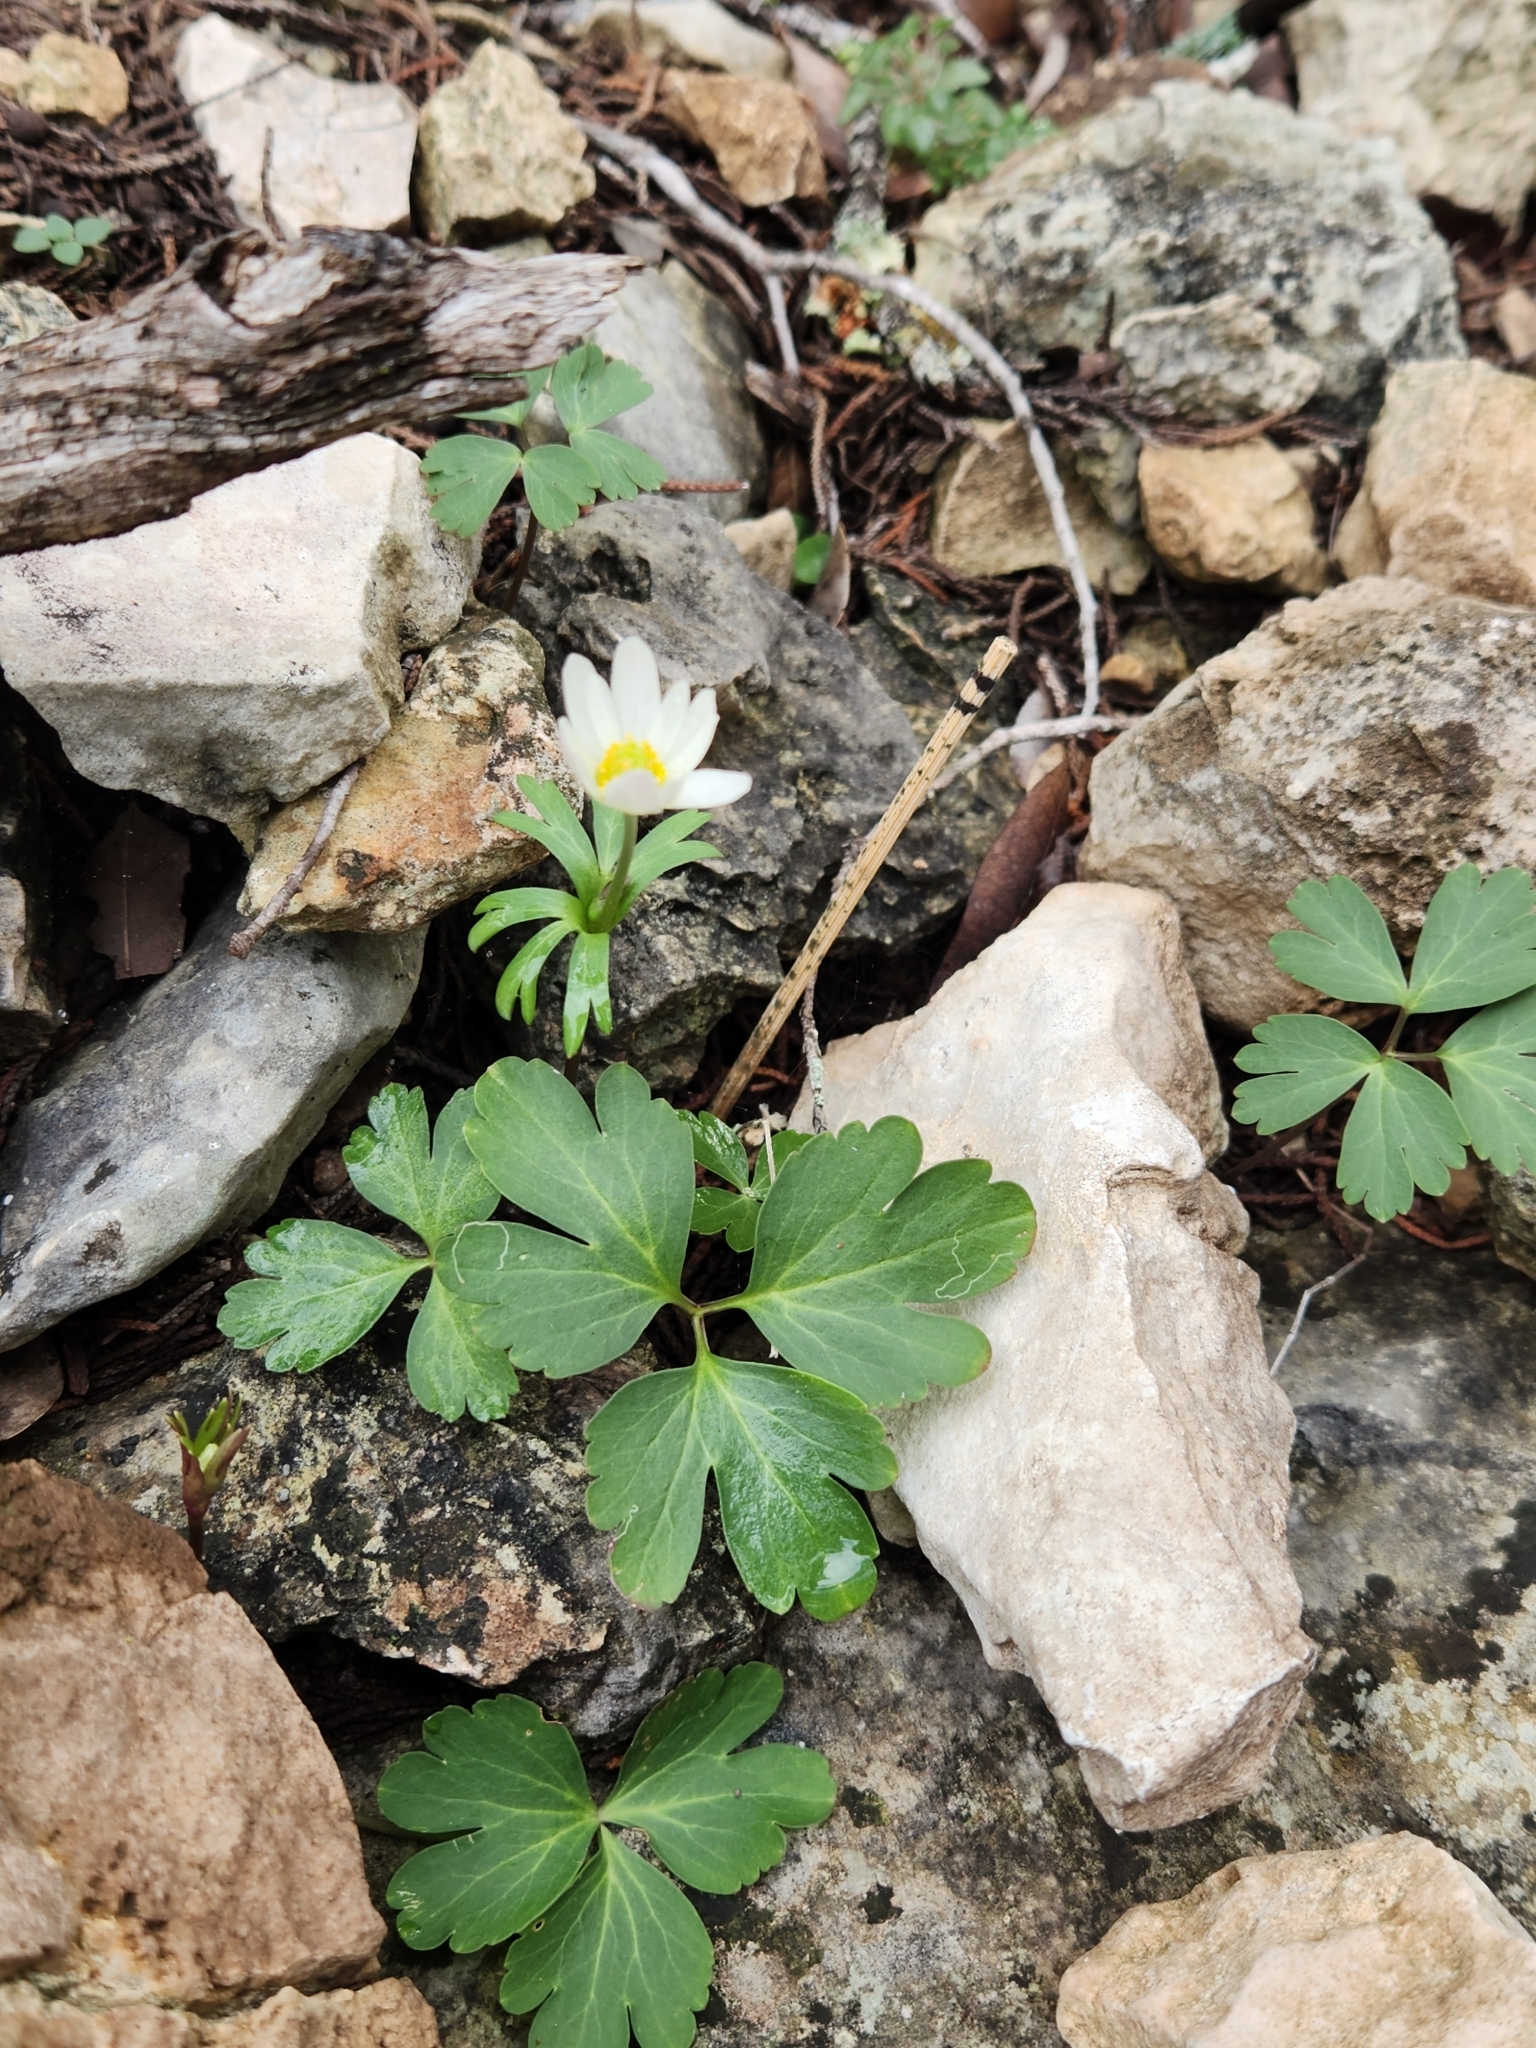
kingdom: Plantae
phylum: Tracheophyta
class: Magnoliopsida
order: Ranunculales
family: Ranunculaceae
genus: Anemone
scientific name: Anemone edwardsiana
